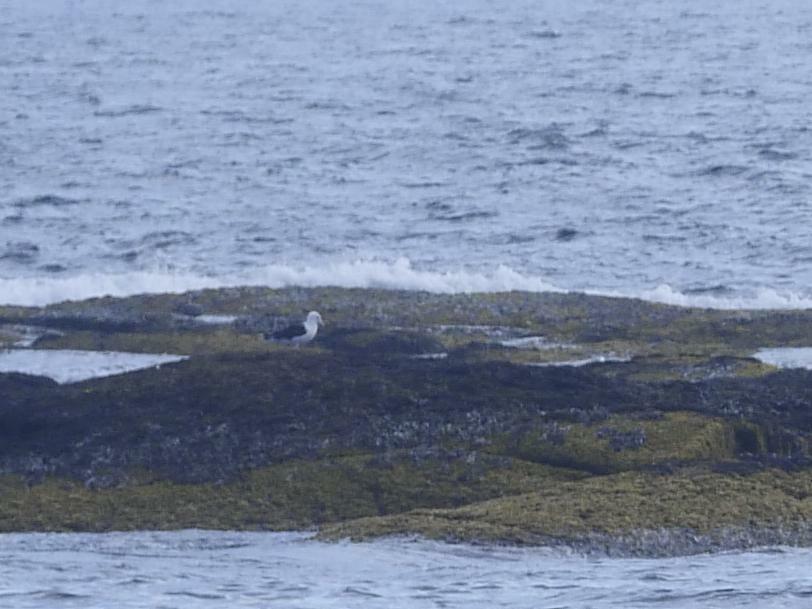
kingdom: Animalia
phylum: Chordata
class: Aves
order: Charadriiformes
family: Laridae
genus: Larus
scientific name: Larus marinus
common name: Great black-backed gull
